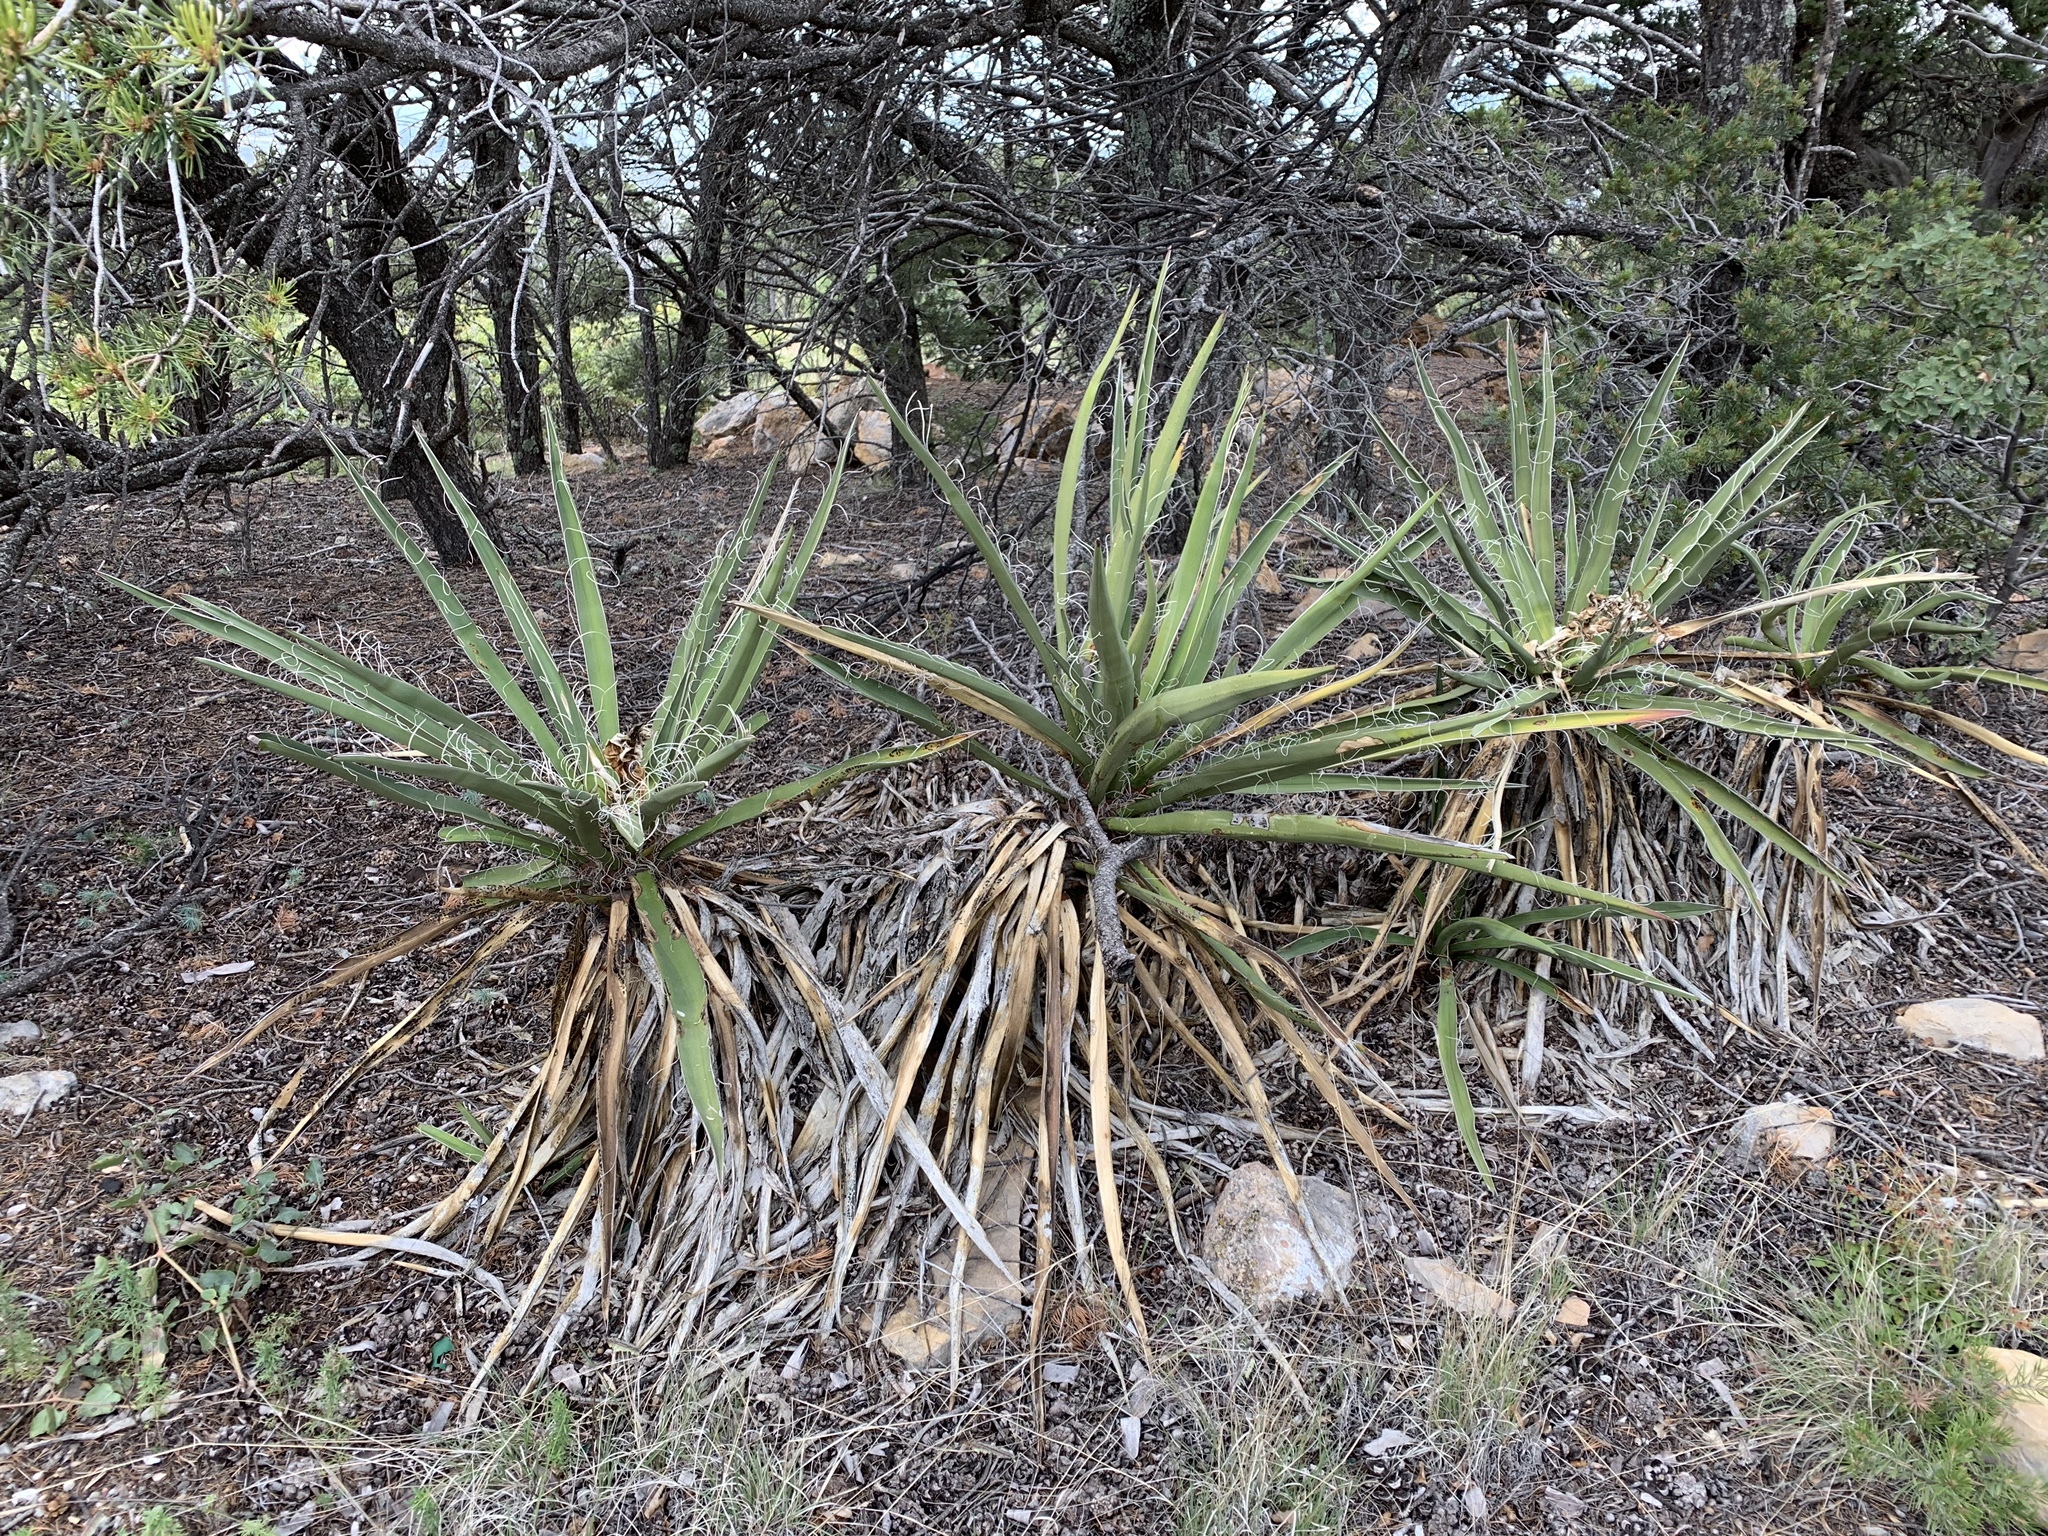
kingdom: Plantae
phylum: Tracheophyta
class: Liliopsida
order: Asparagales
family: Asparagaceae
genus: Yucca
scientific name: Yucca baccata
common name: Banana yucca
